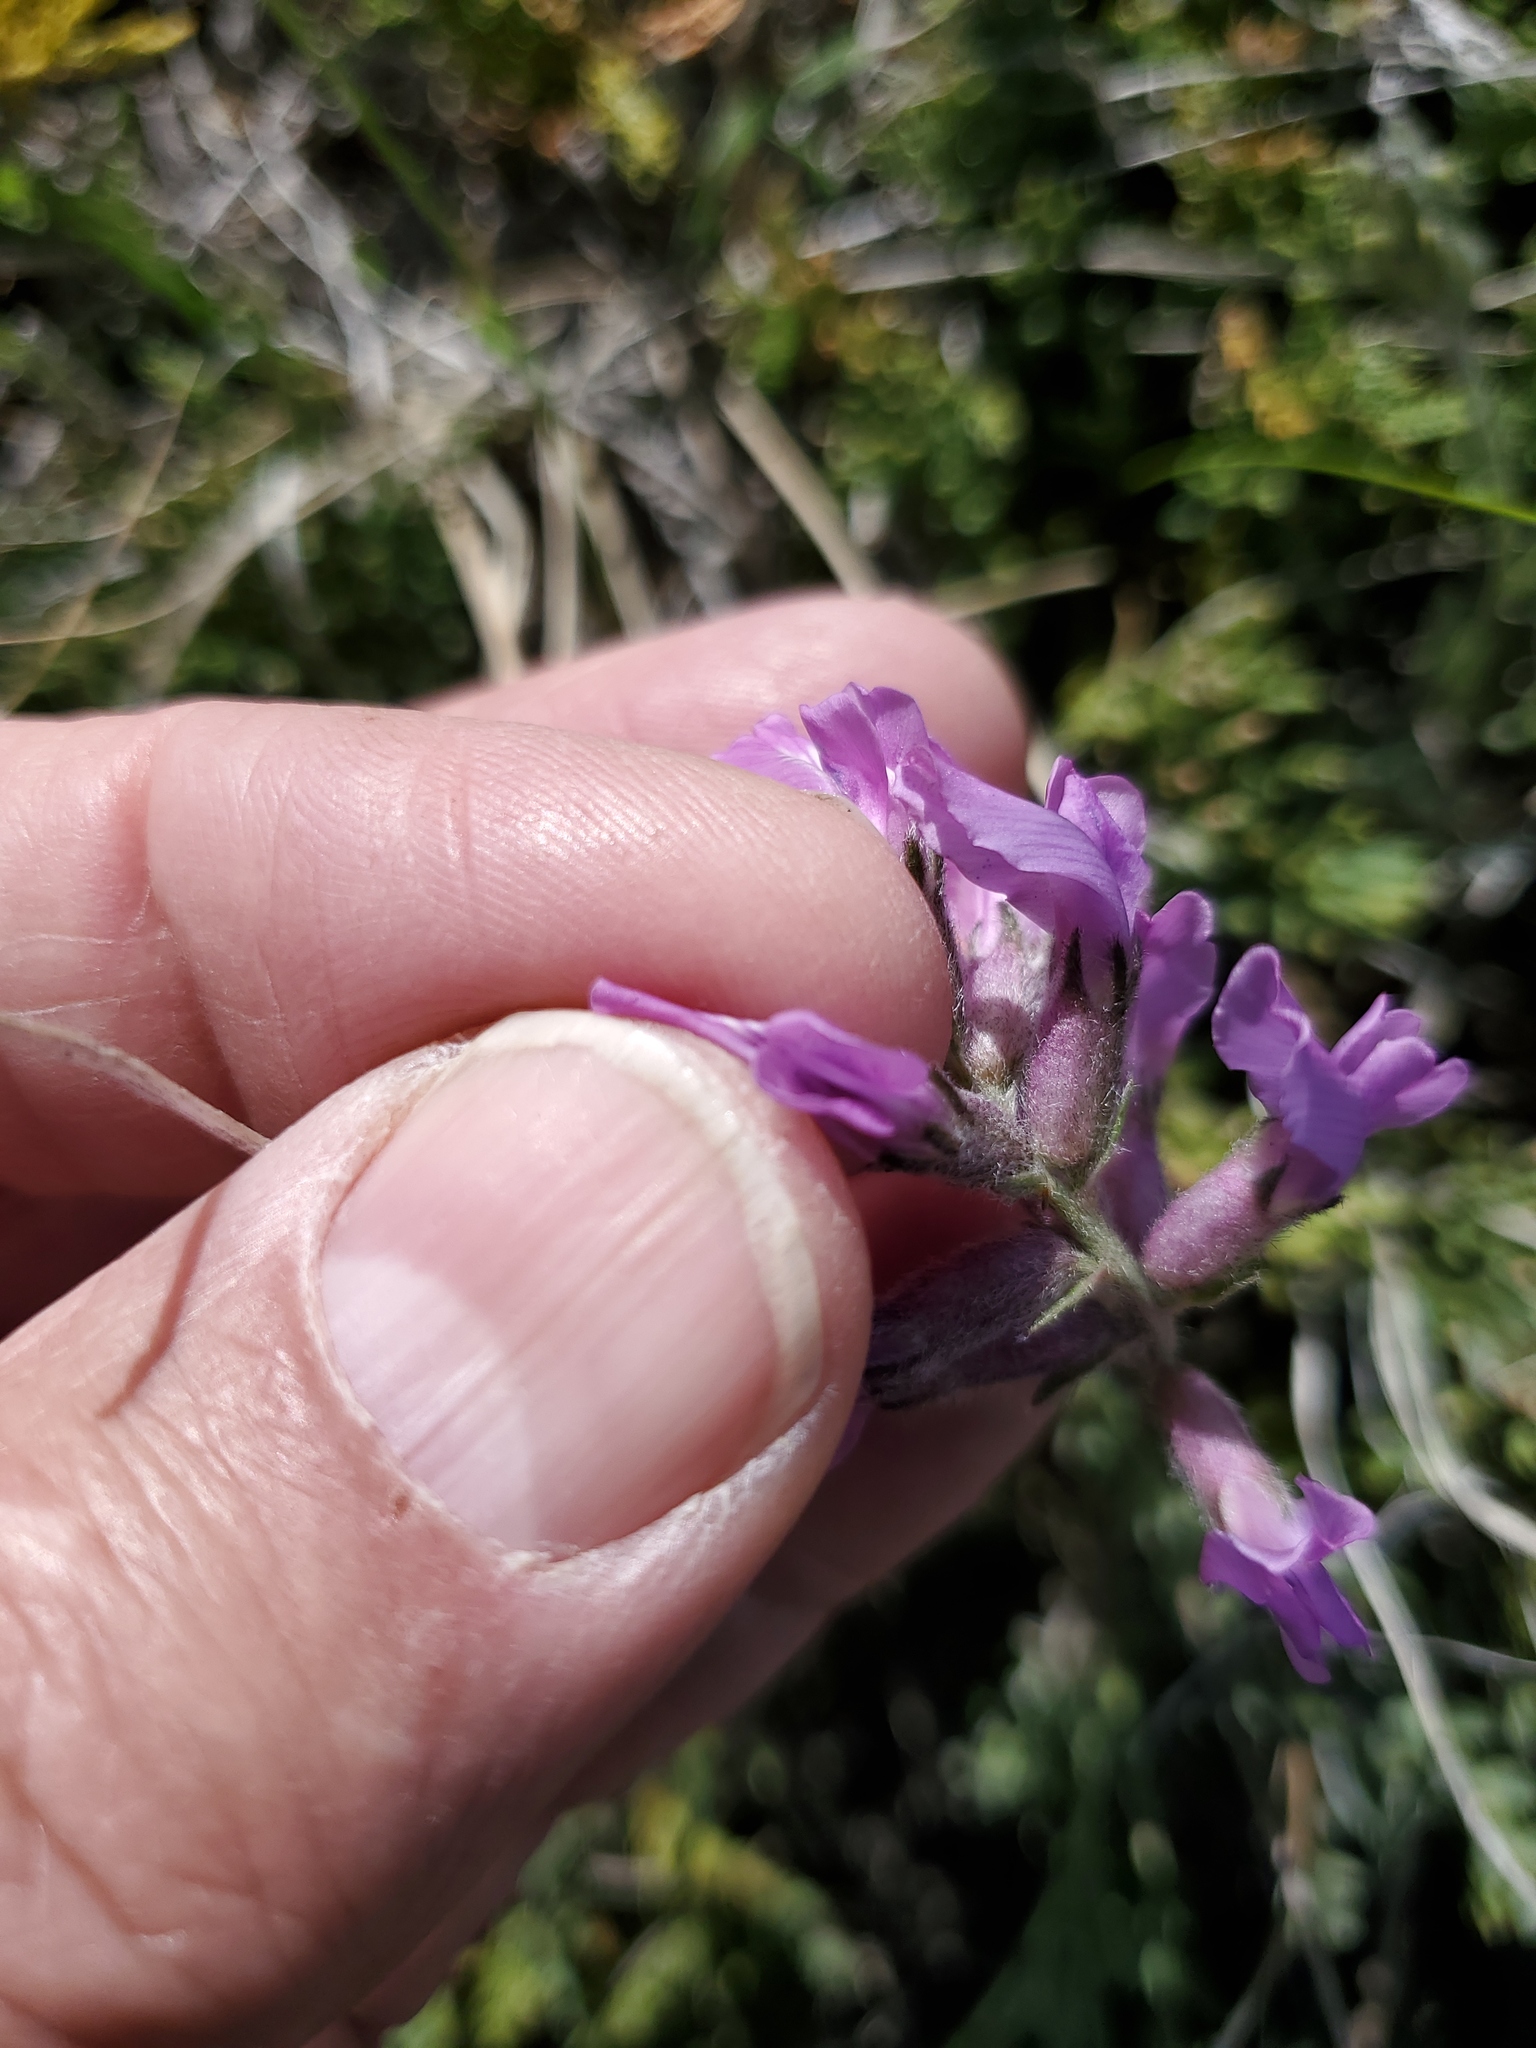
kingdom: Plantae
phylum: Tracheophyta
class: Magnoliopsida
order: Fabales
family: Fabaceae
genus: Oxytropis
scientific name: Oxytropis lambertii
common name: Purple locoweed
